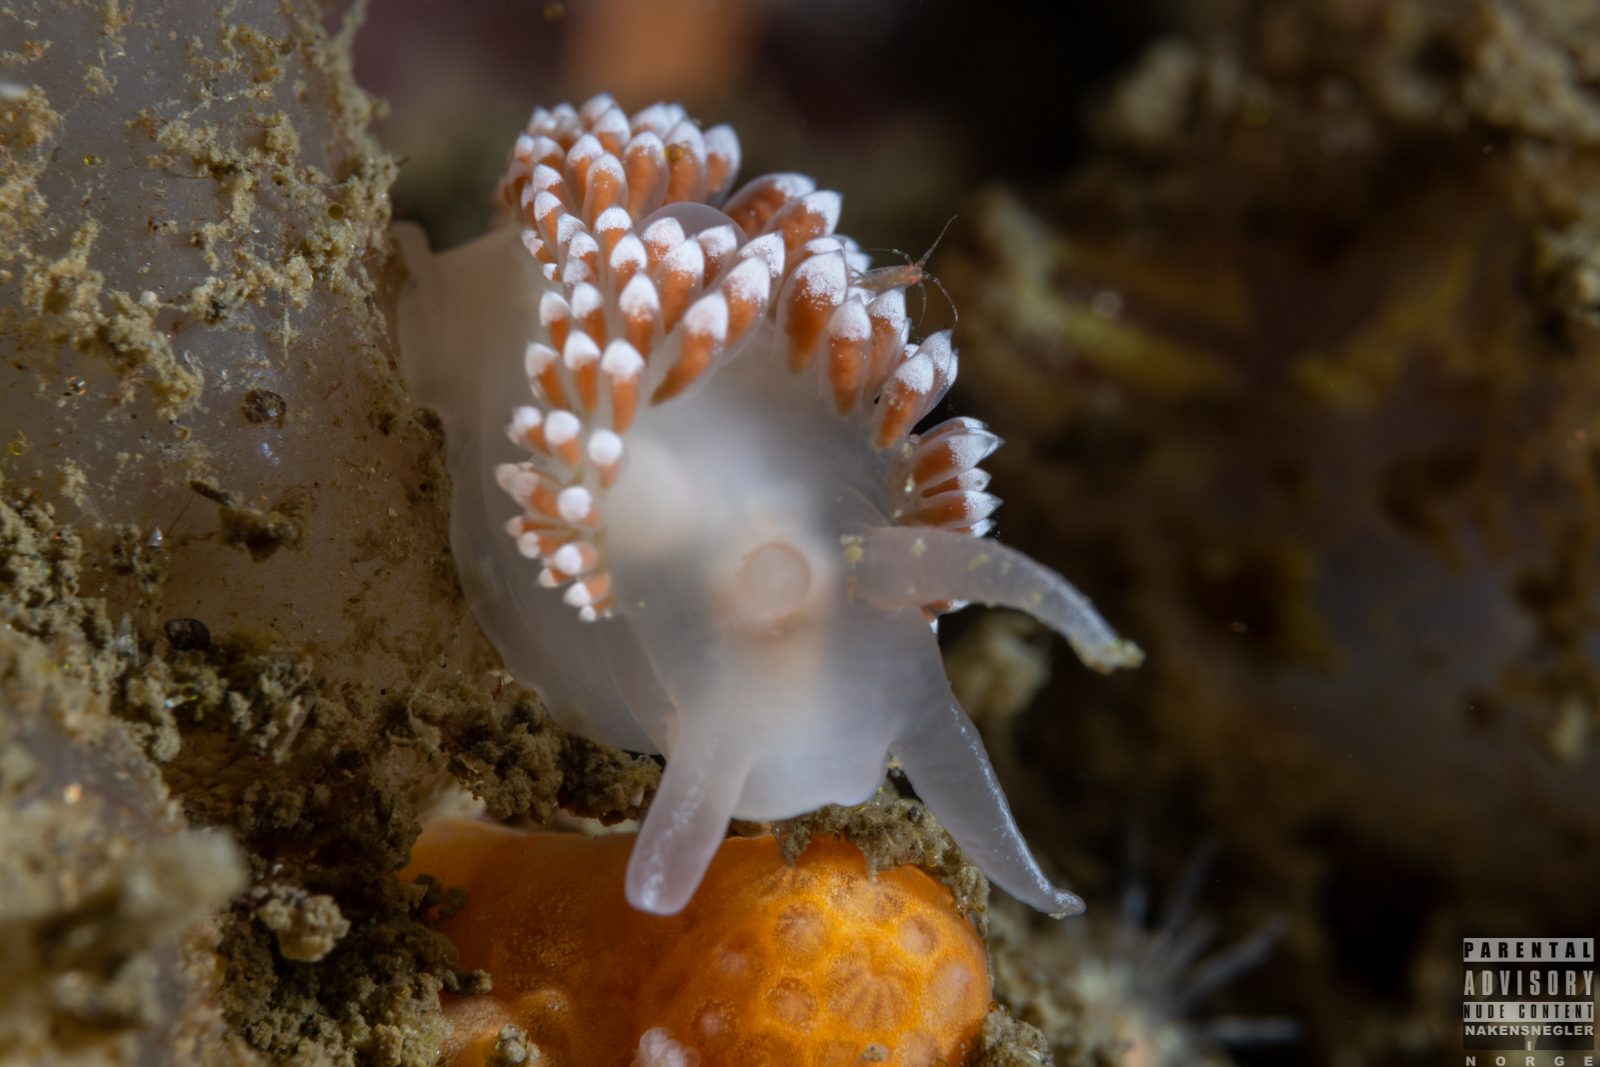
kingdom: Animalia
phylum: Mollusca
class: Gastropoda
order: Nudibranchia
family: Coryphellidae
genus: Coryphella
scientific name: Coryphella verrucosa
